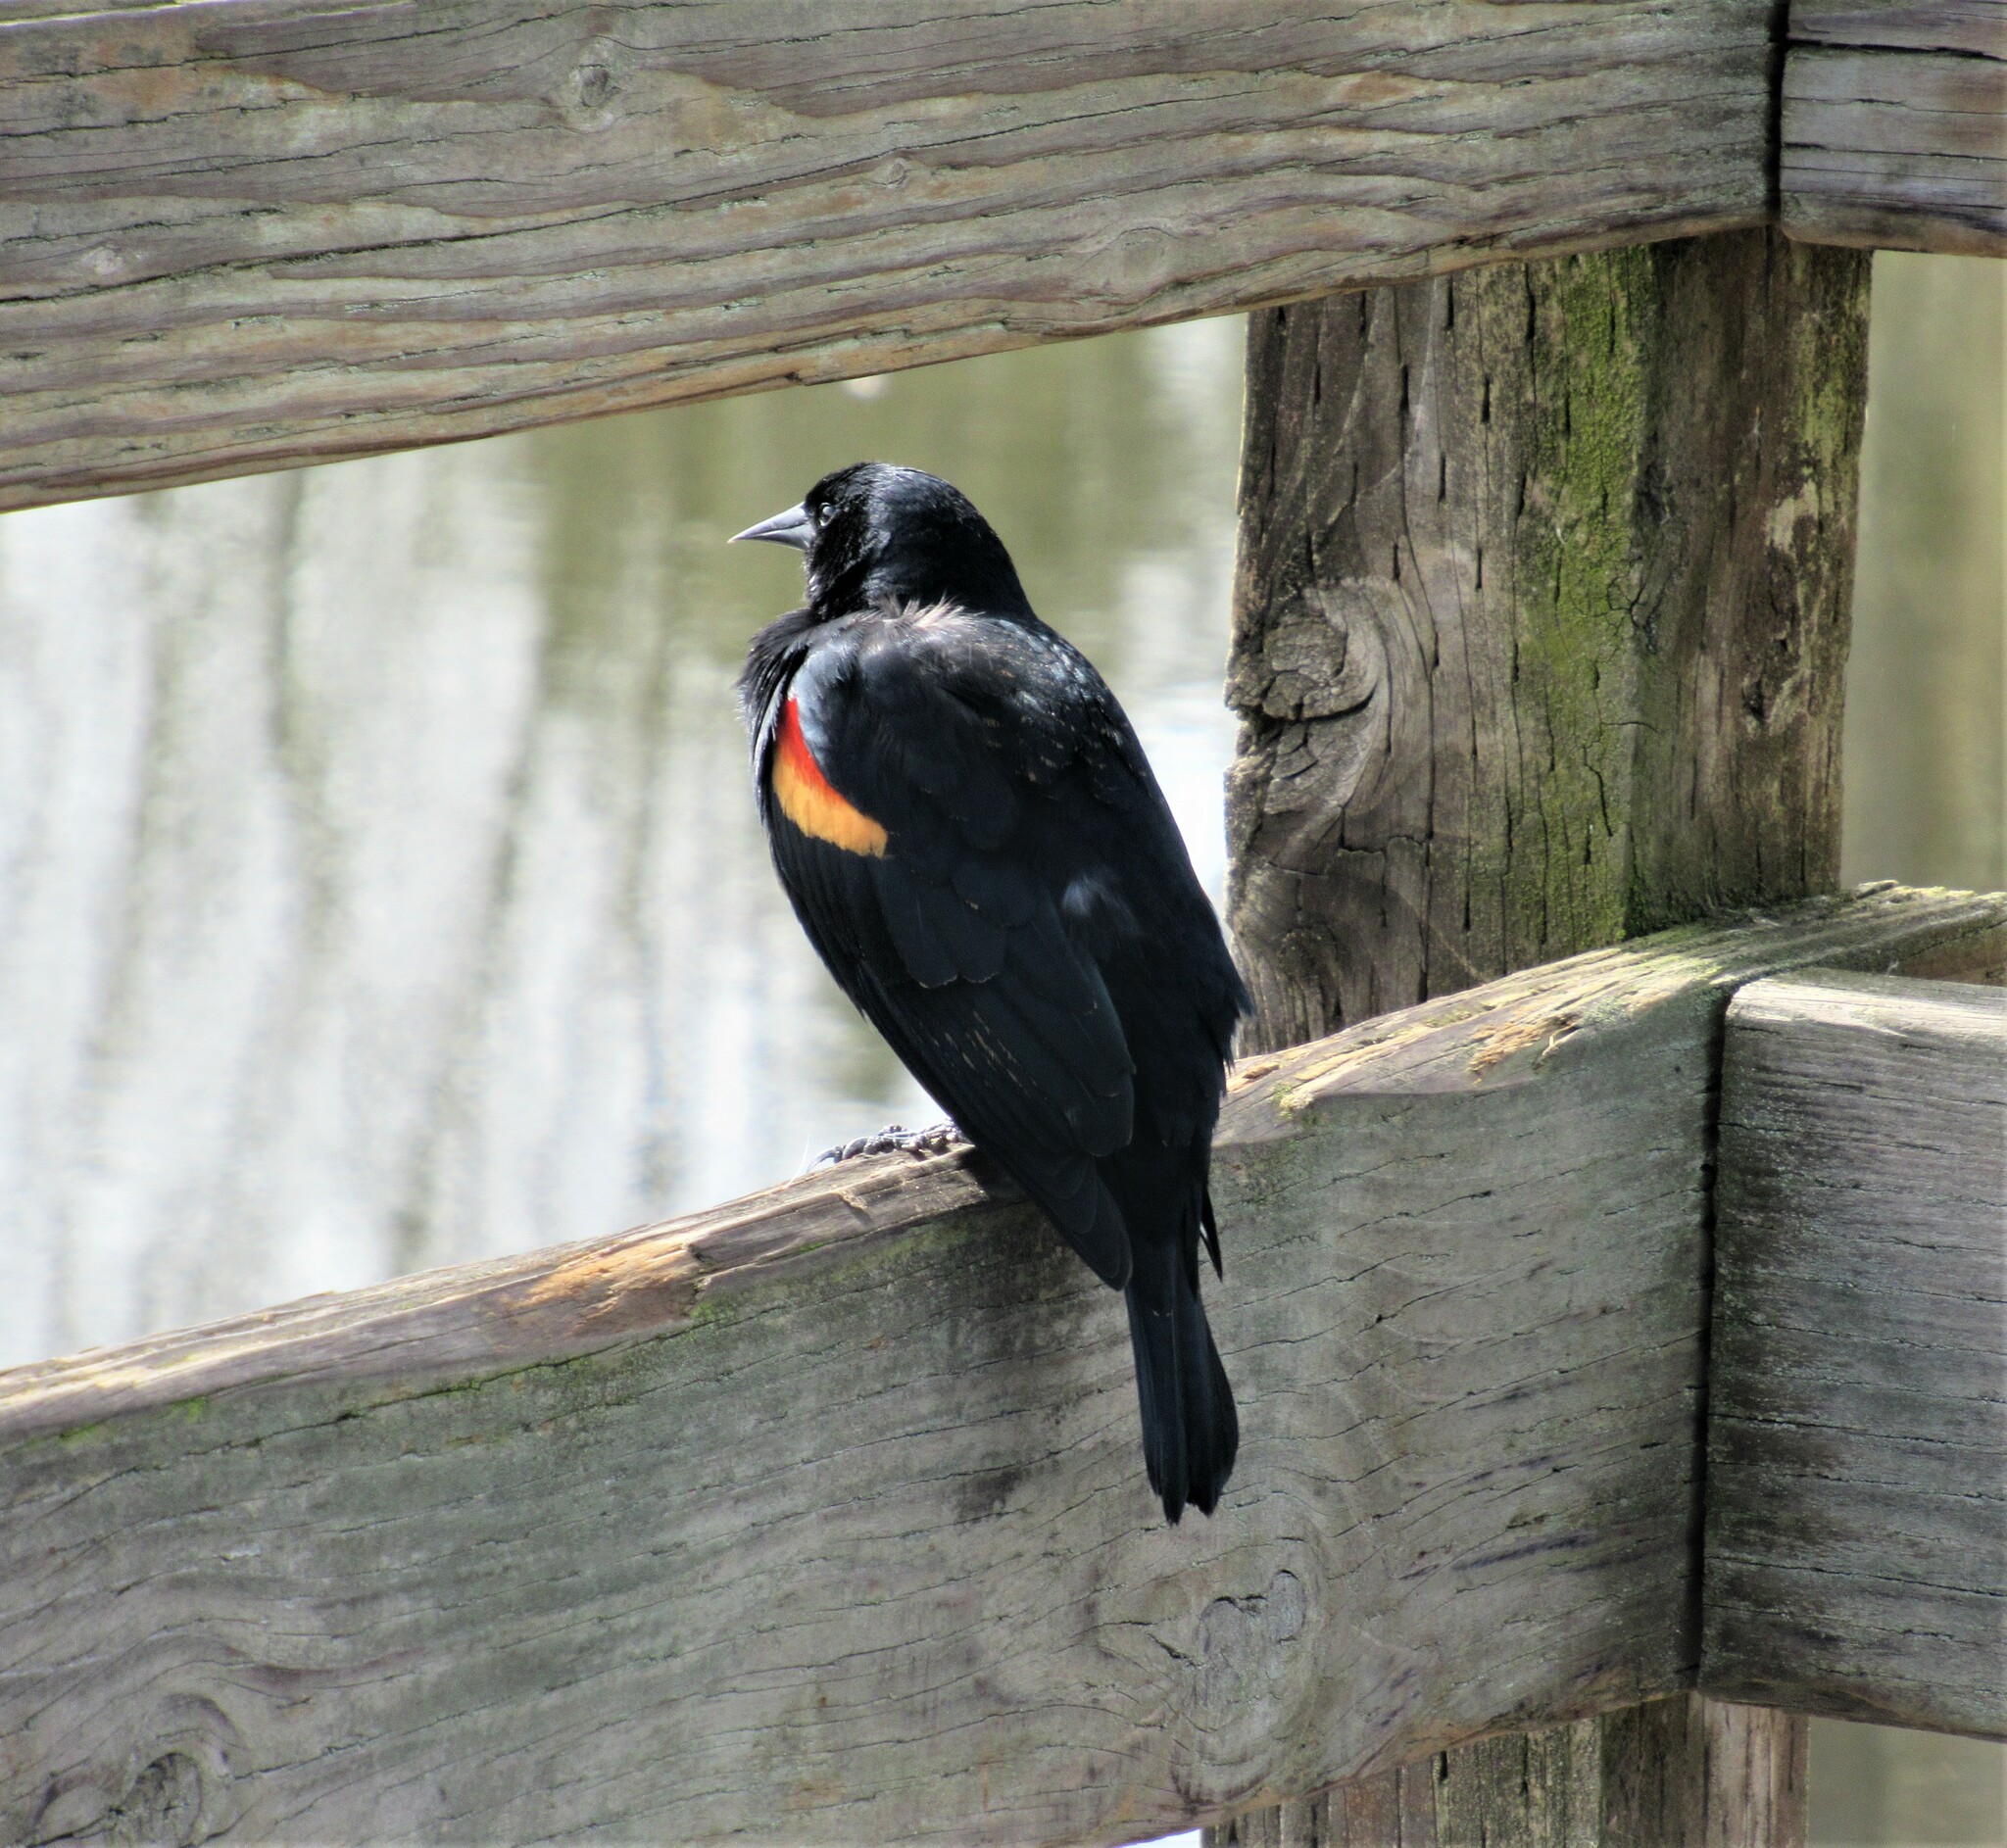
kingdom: Animalia
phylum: Chordata
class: Aves
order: Passeriformes
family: Icteridae
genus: Agelaius
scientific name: Agelaius phoeniceus
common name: Red-winged blackbird
